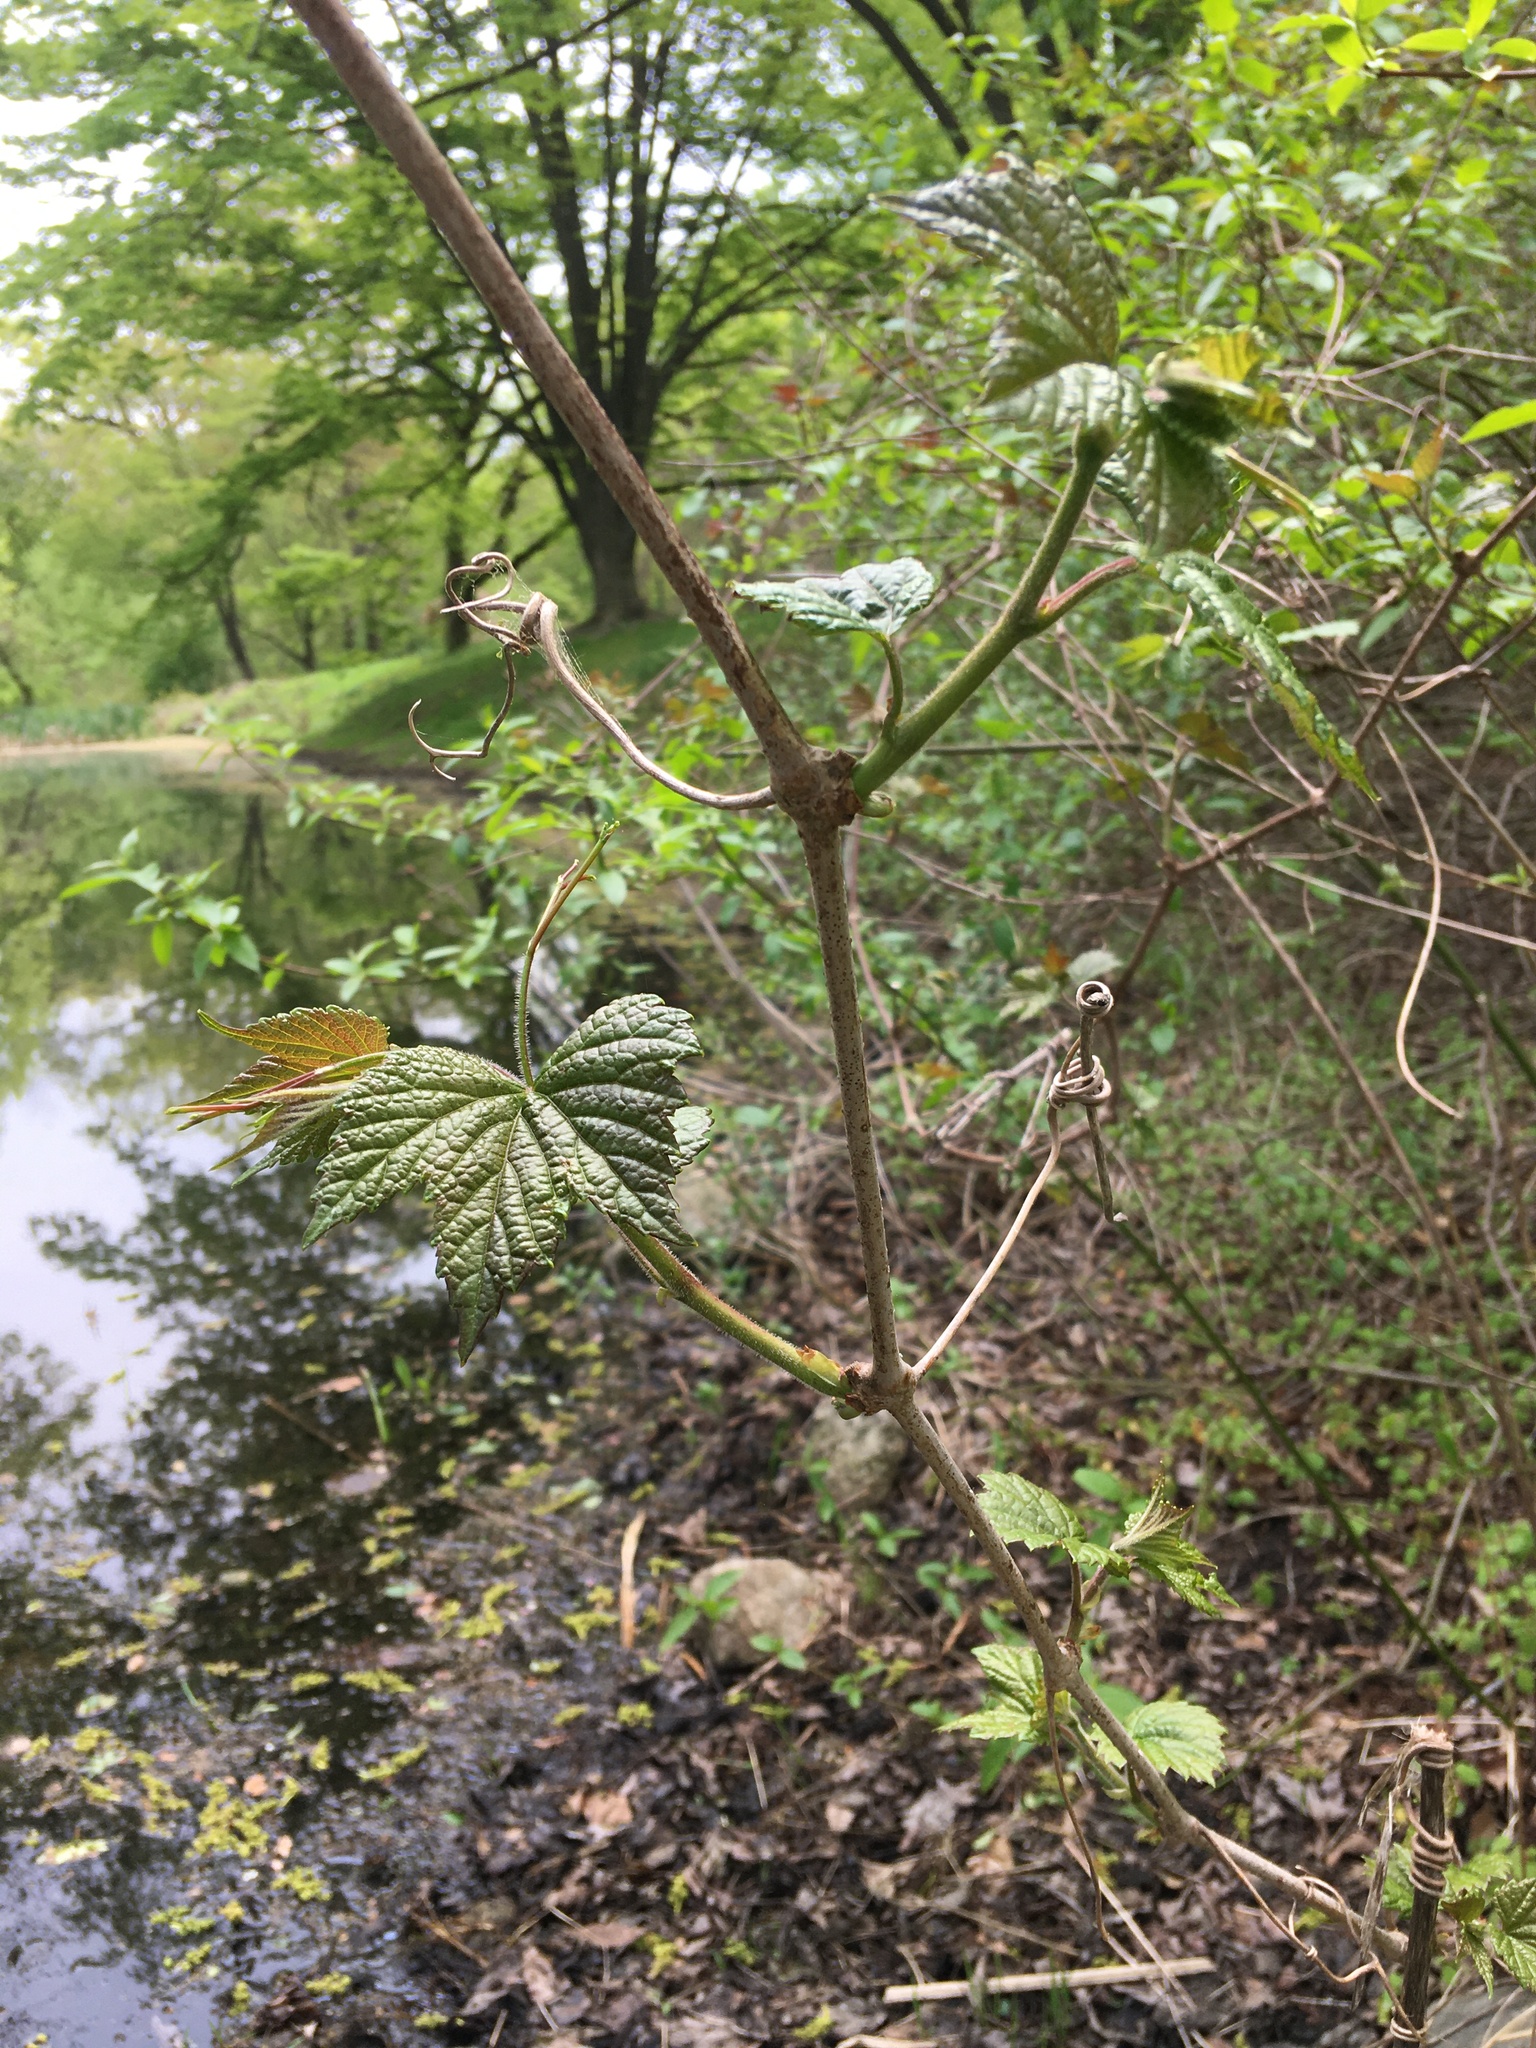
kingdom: Plantae
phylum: Tracheophyta
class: Magnoliopsida
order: Vitales
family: Vitaceae
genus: Ampelopsis
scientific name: Ampelopsis glandulosa
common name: Amur peppervine
